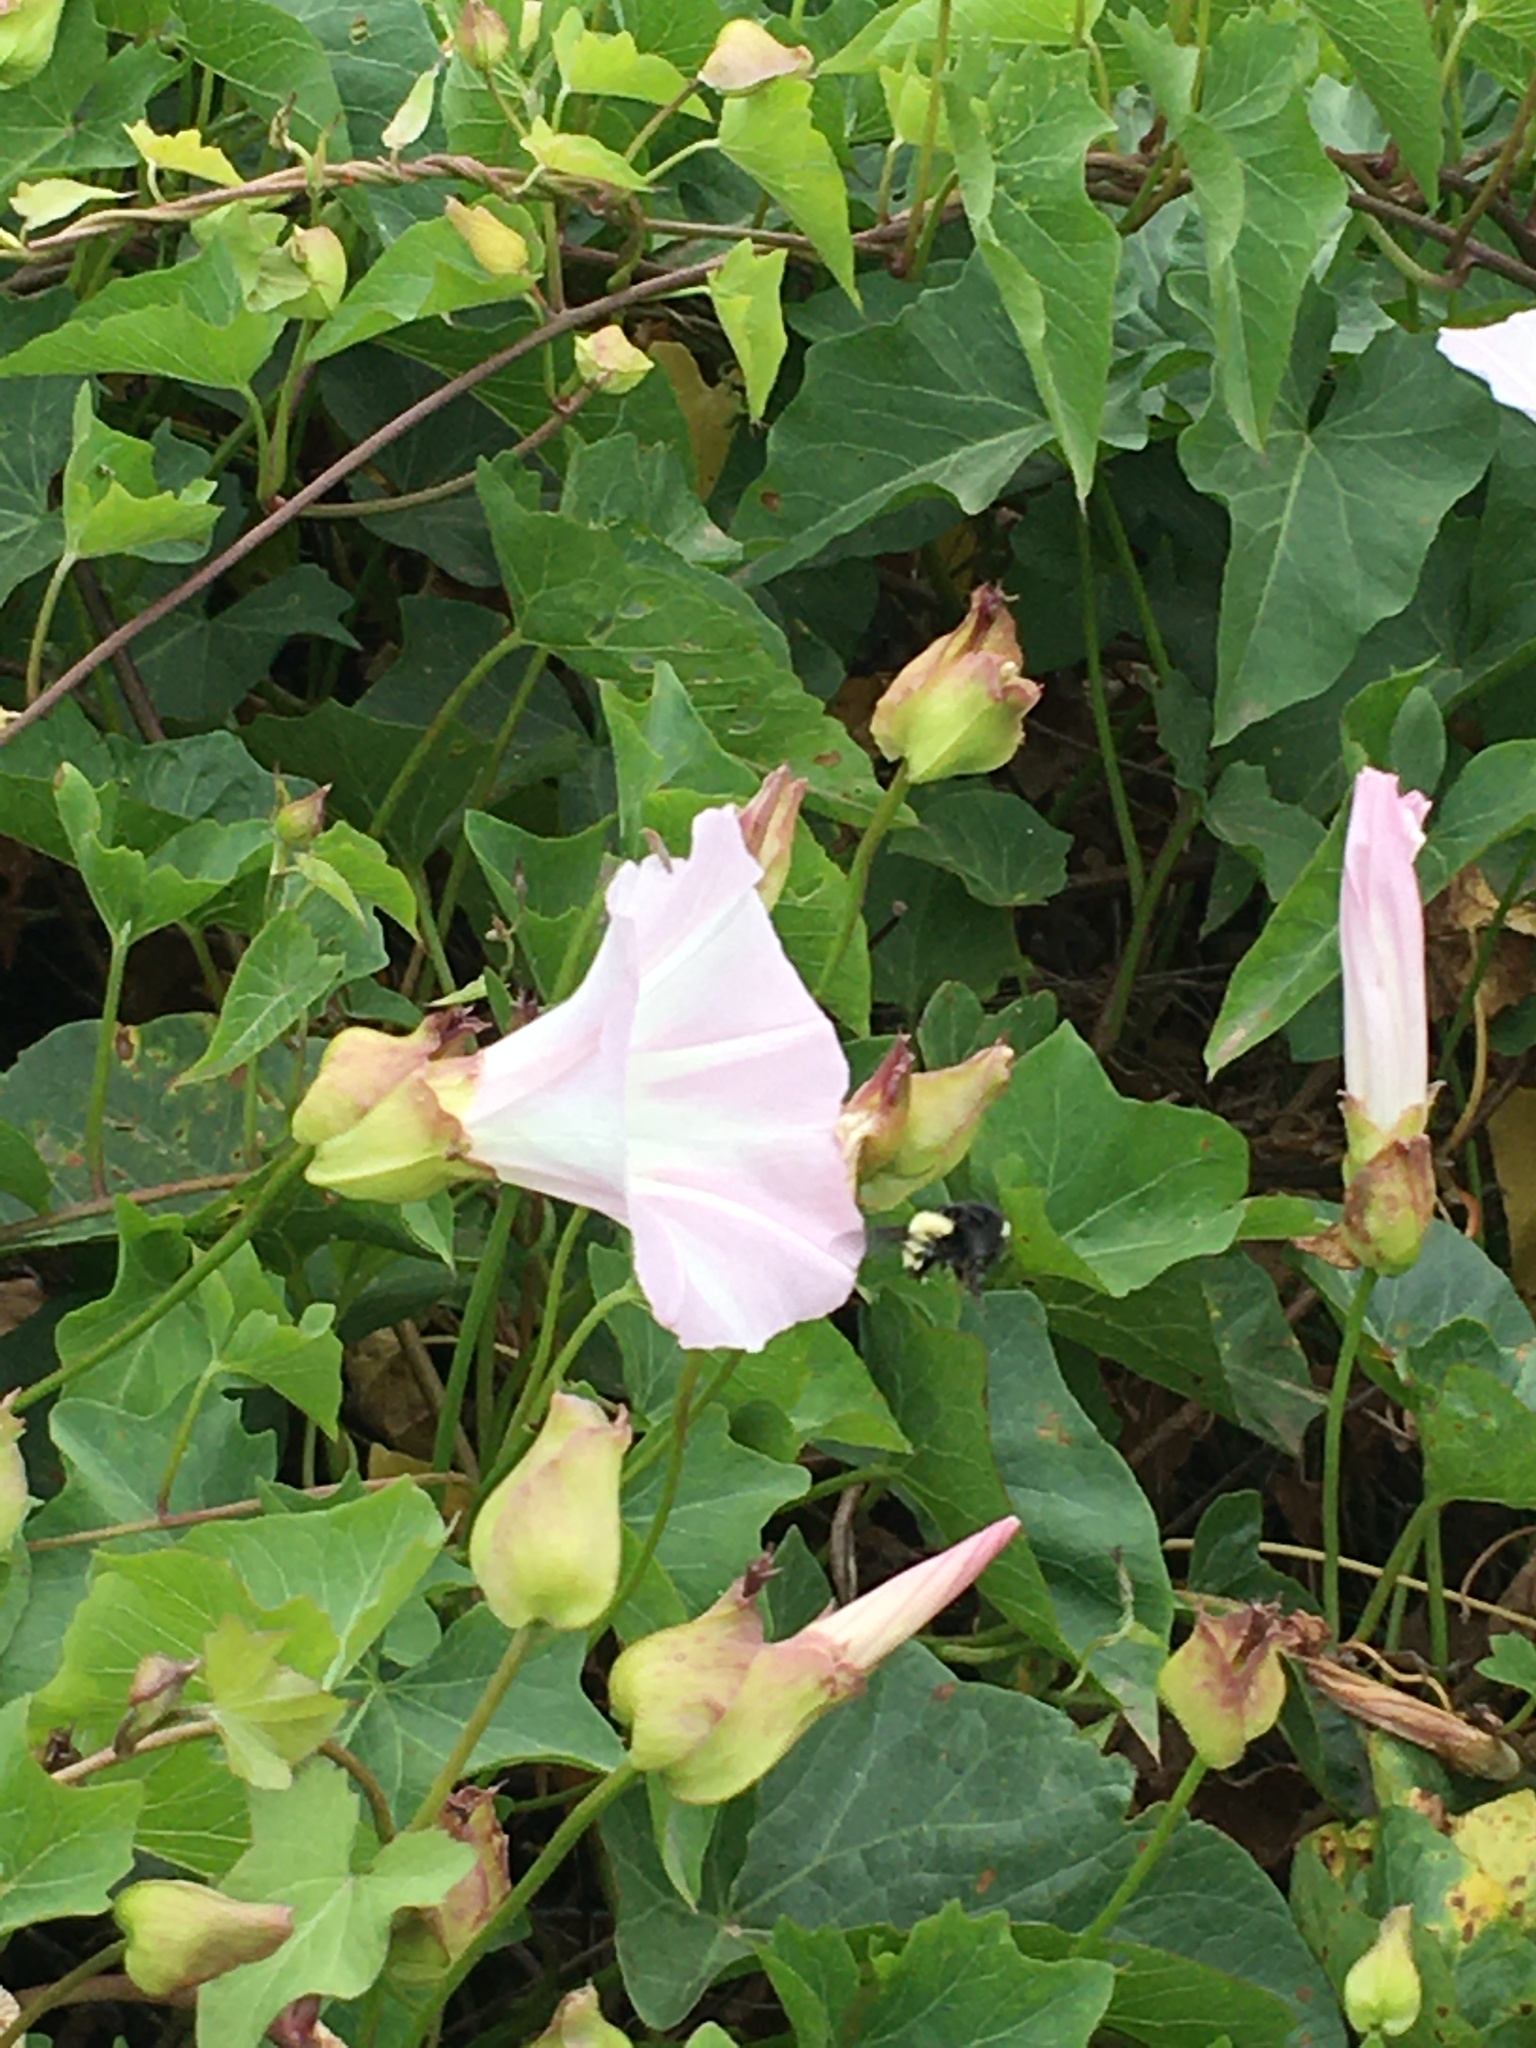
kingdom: Plantae
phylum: Tracheophyta
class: Magnoliopsida
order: Solanales
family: Convolvulaceae
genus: Calystegia
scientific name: Calystegia macrostegia
